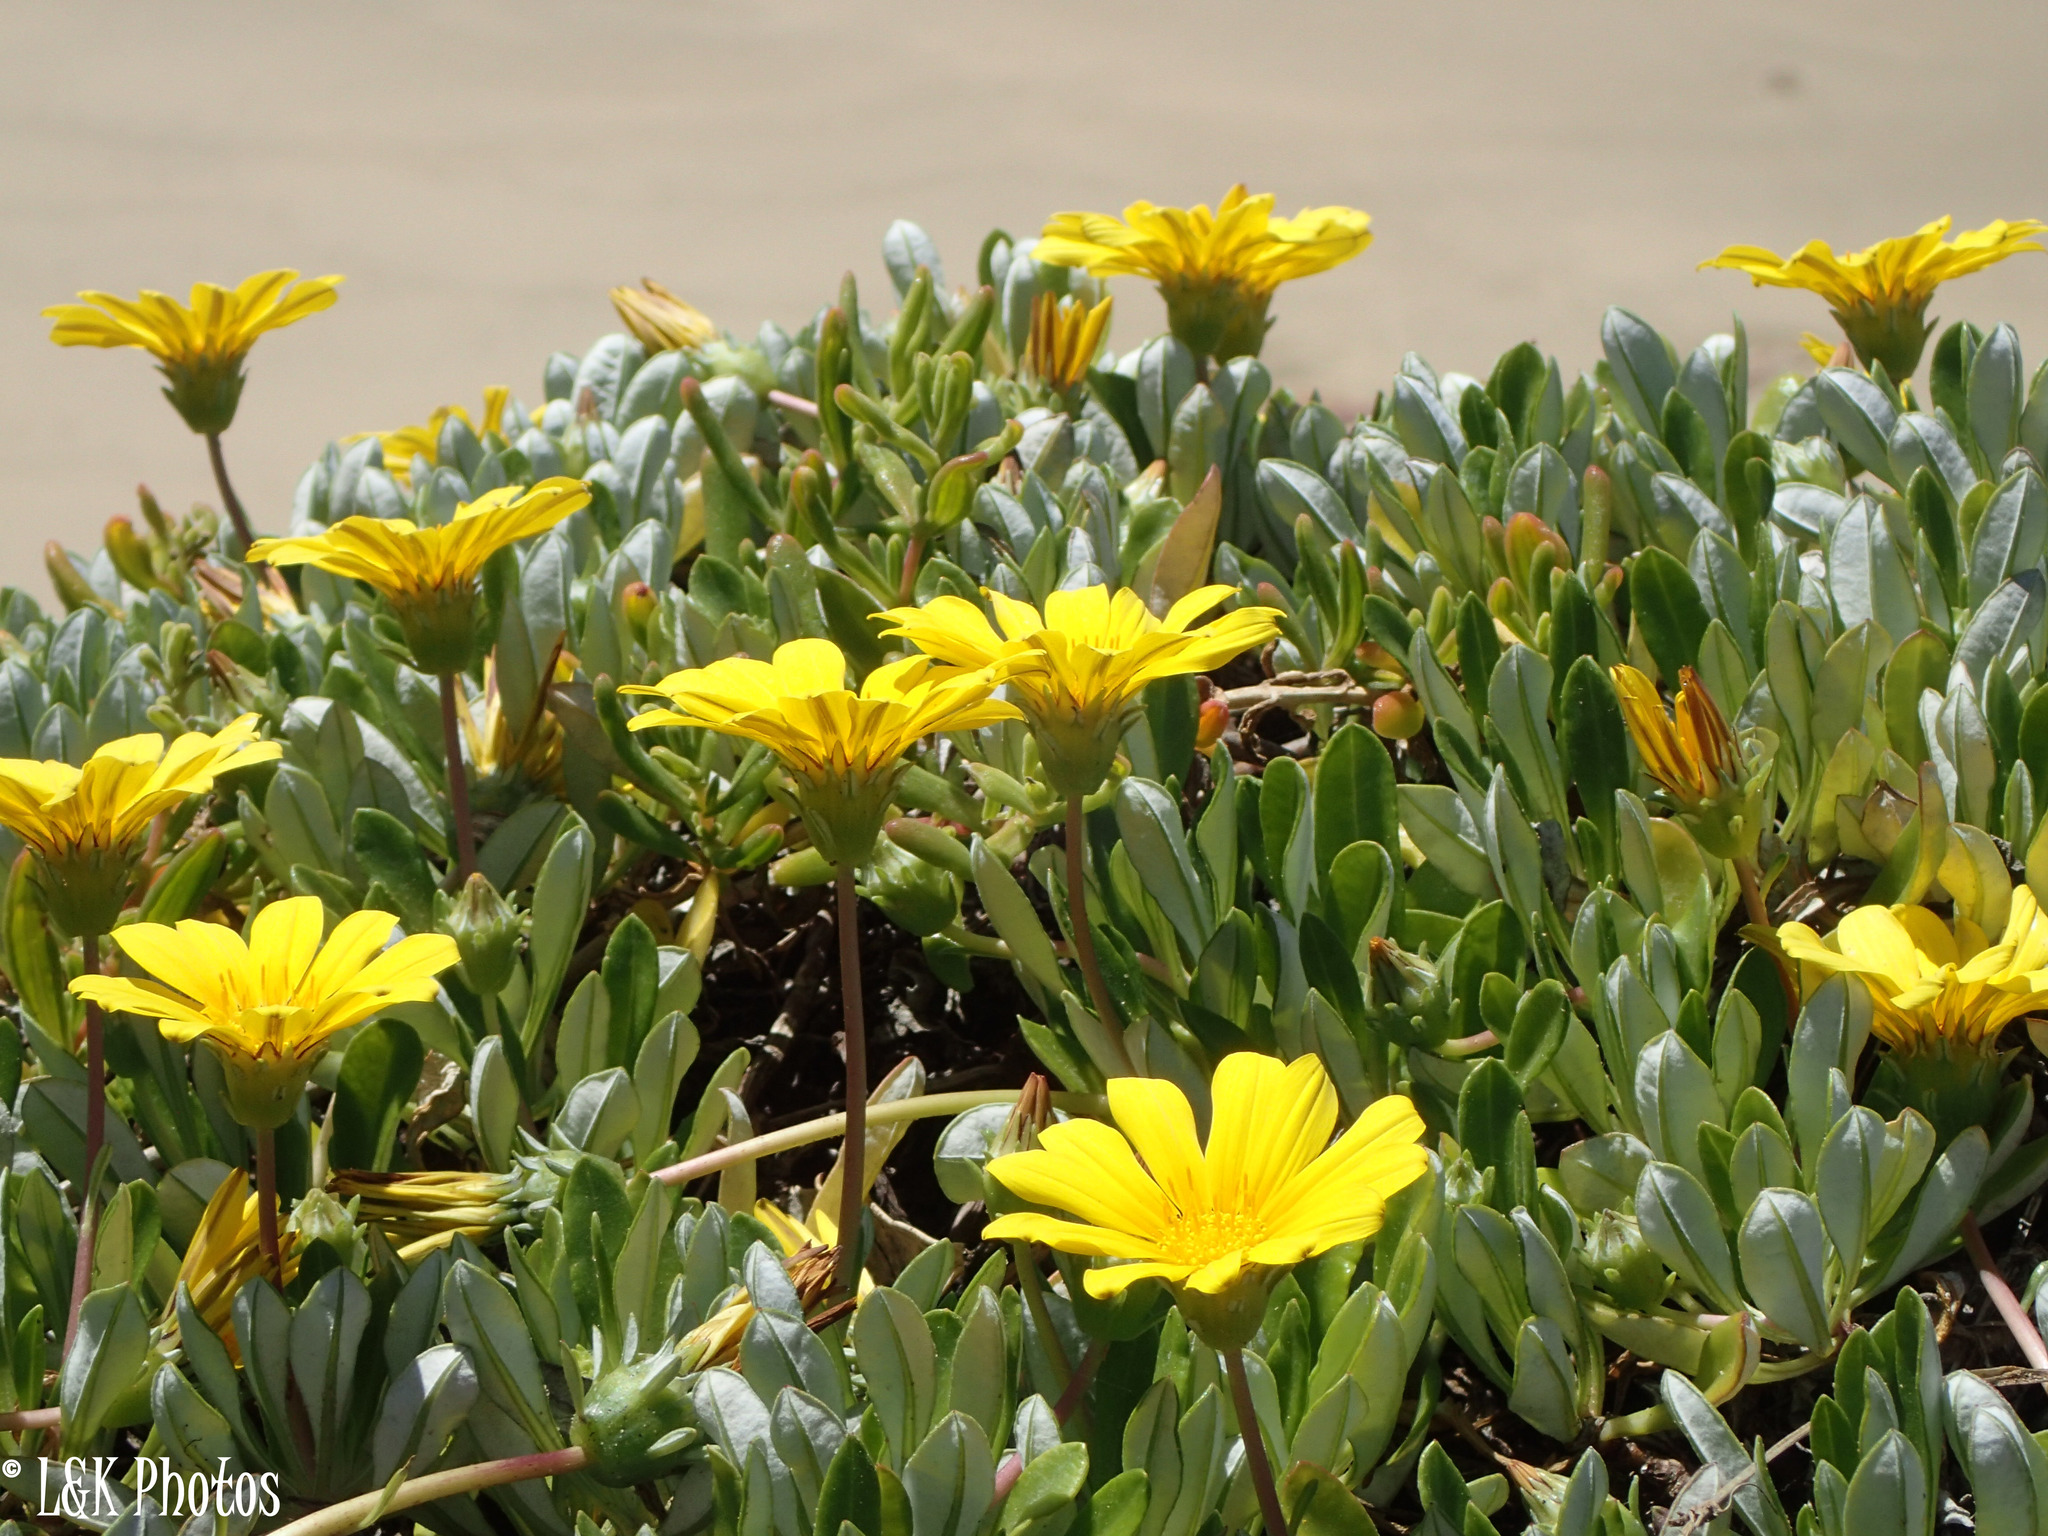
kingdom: Plantae
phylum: Tracheophyta
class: Magnoliopsida
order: Asterales
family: Asteraceae
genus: Gazania
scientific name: Gazania rigens
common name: Treasureflower
